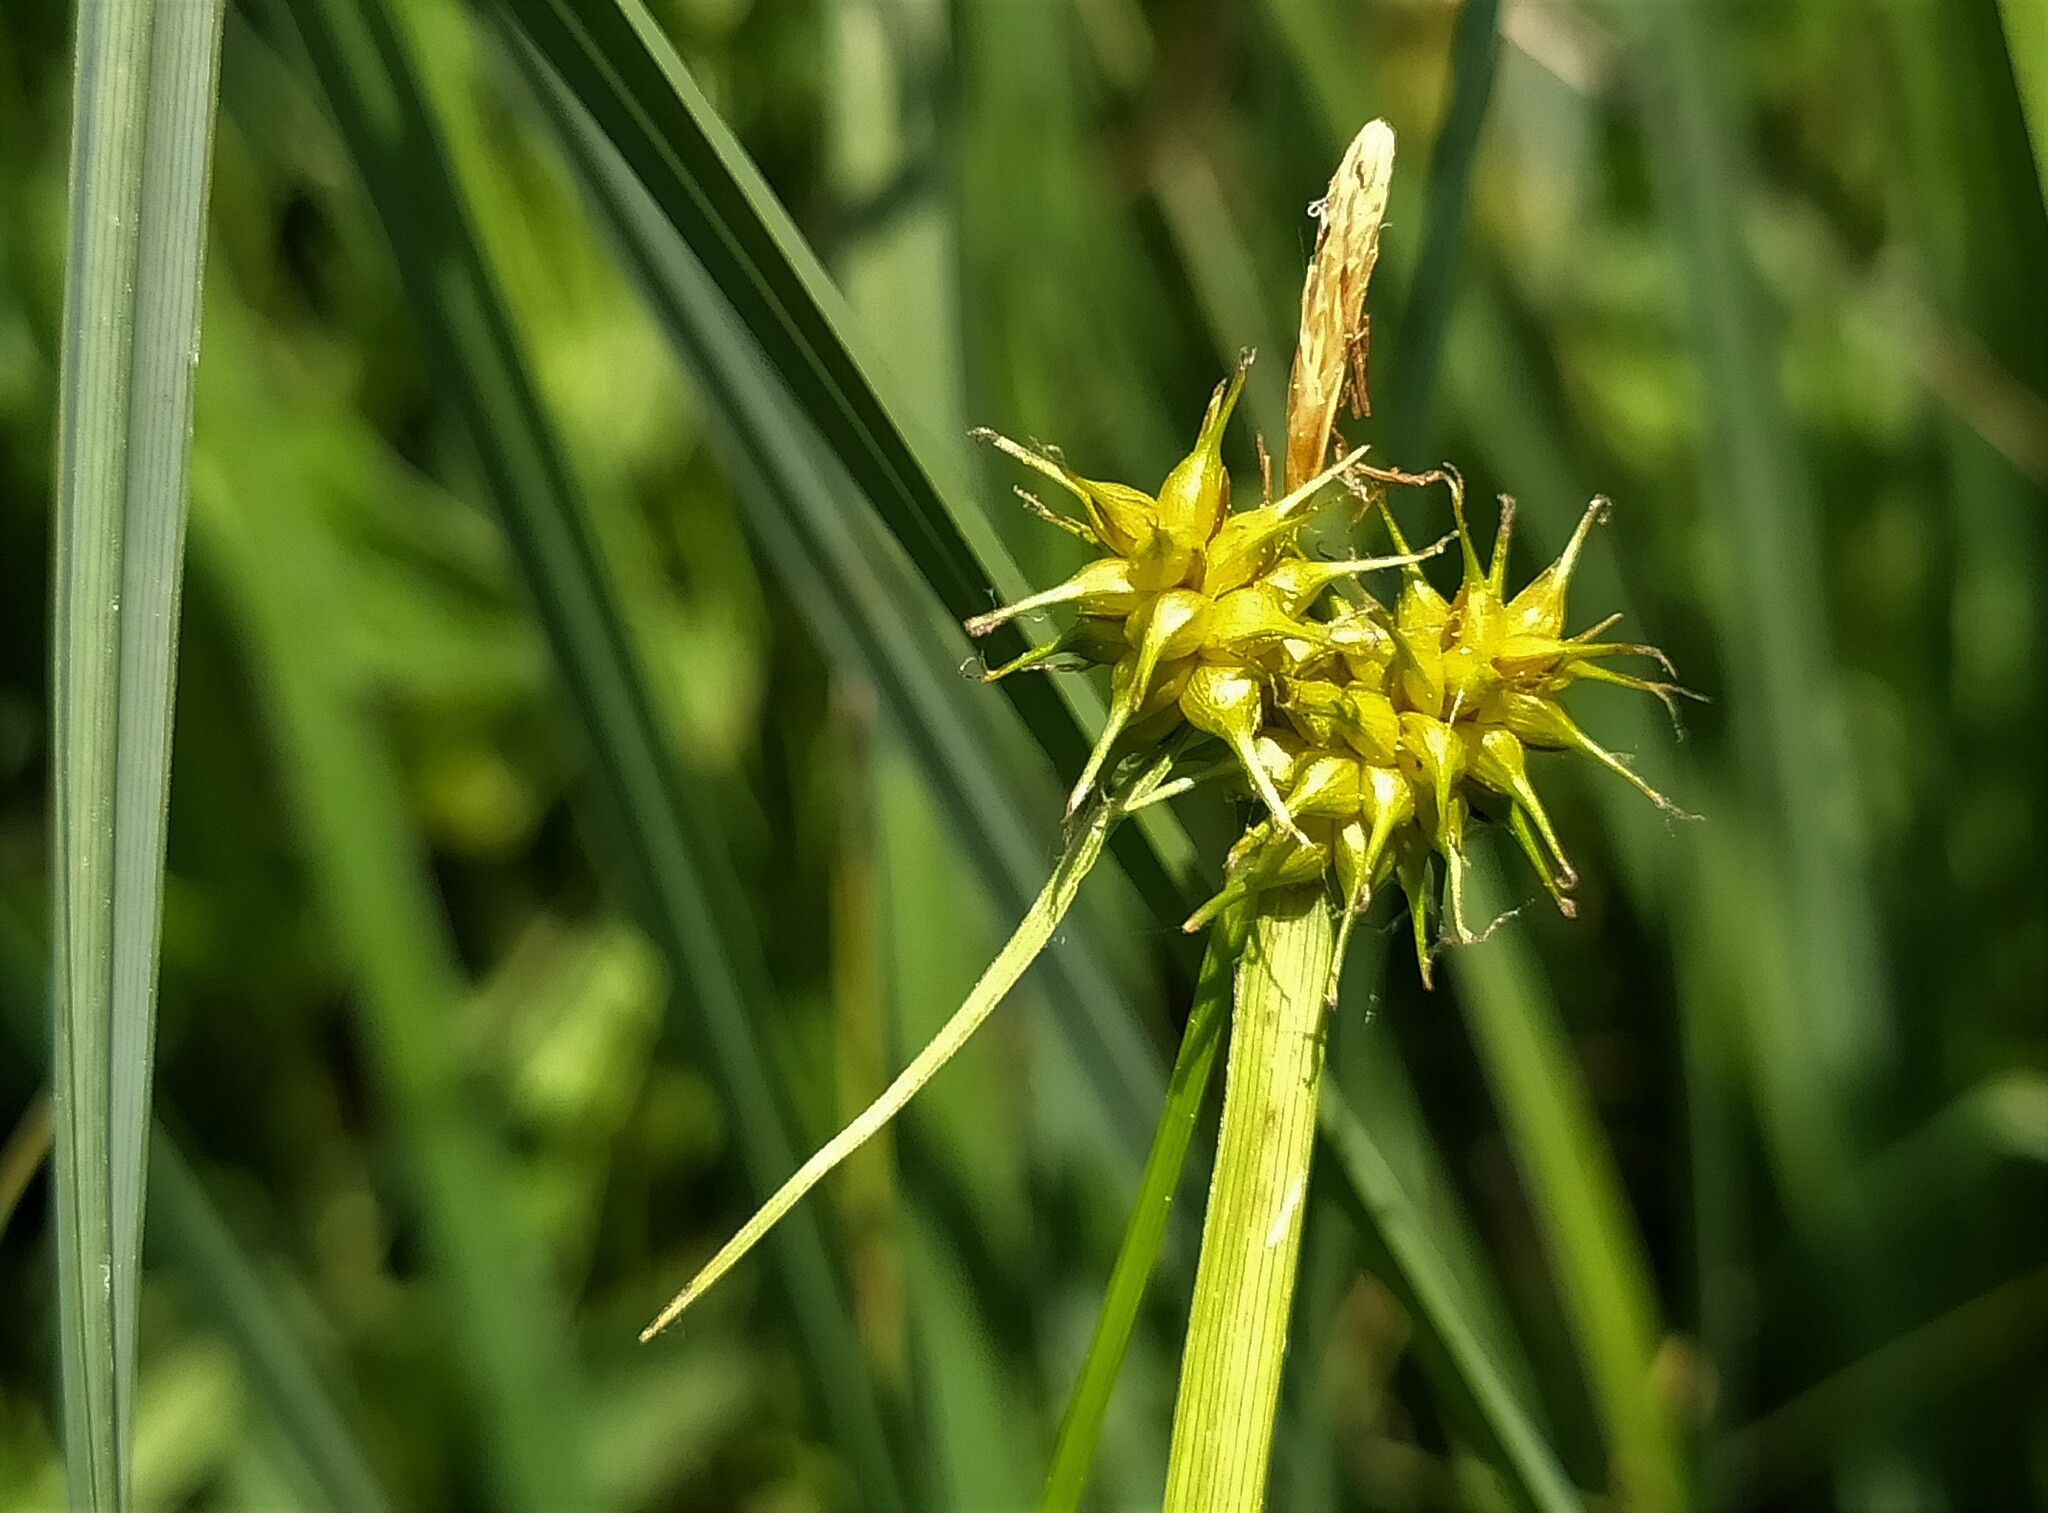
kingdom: Plantae
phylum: Tracheophyta
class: Liliopsida
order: Poales
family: Cyperaceae
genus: Carex
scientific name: Carex flava
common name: Large yellow-sedge
